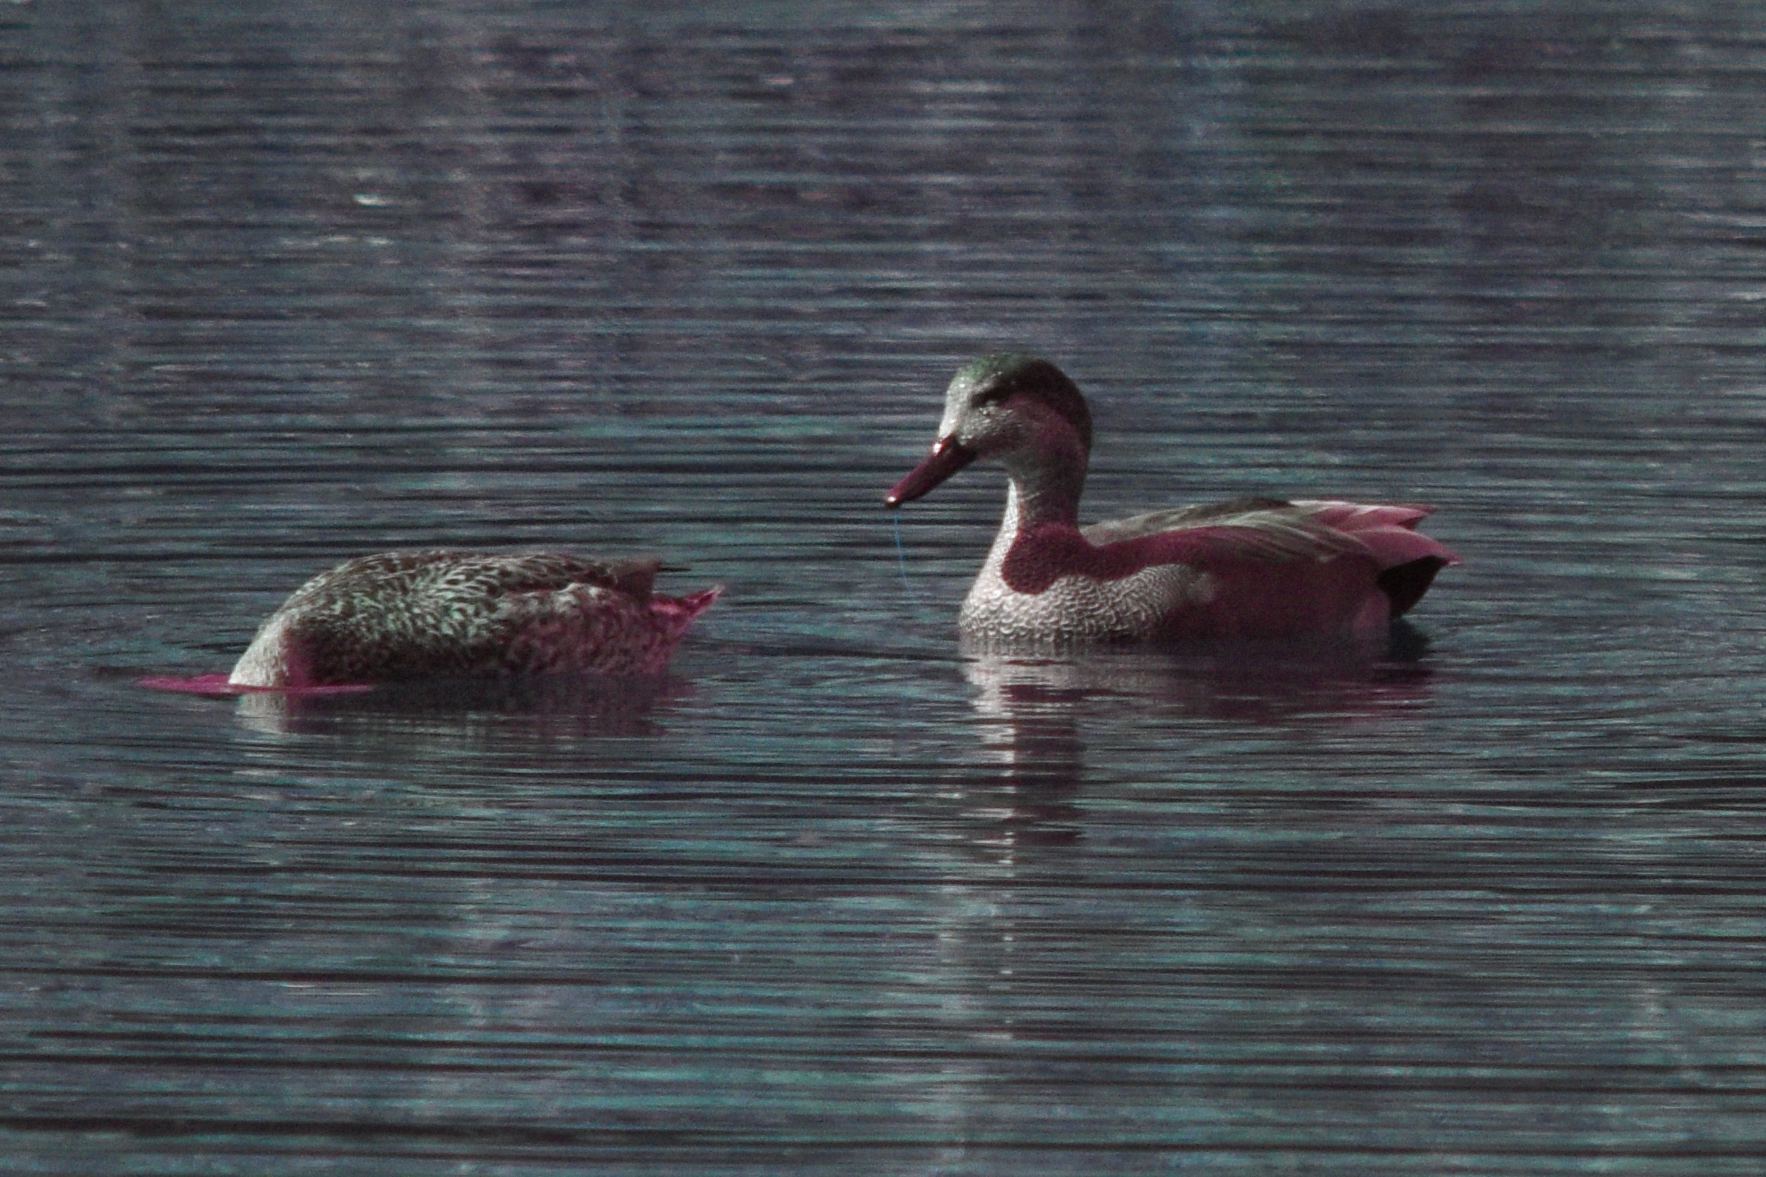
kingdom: Animalia
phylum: Chordata
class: Aves
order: Anseriformes
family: Anatidae
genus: Mareca
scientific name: Mareca strepera
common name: Gadwall
